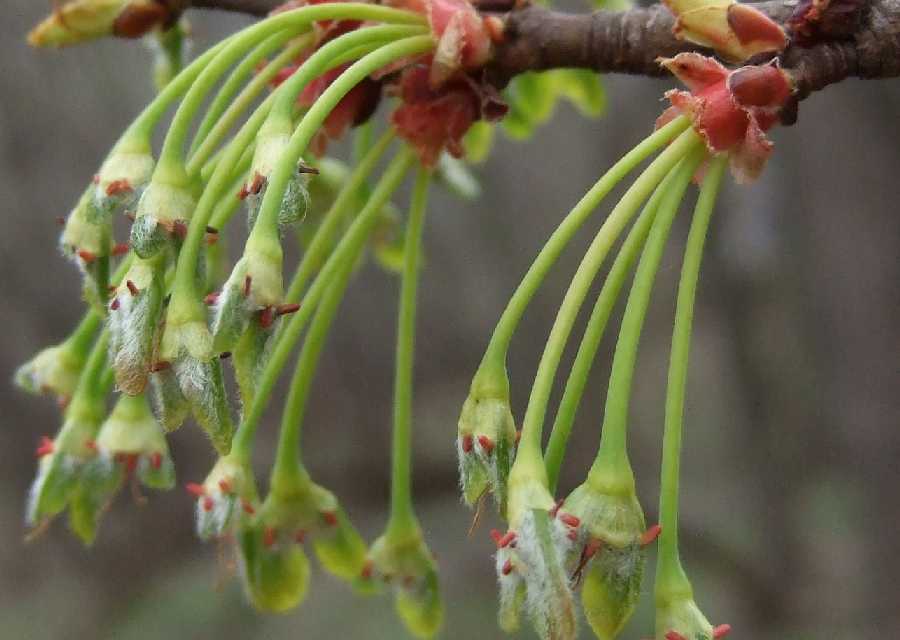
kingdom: Plantae
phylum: Tracheophyta
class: Magnoliopsida
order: Sapindales
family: Sapindaceae
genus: Acer
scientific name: Acer saccharinum
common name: Silver maple
